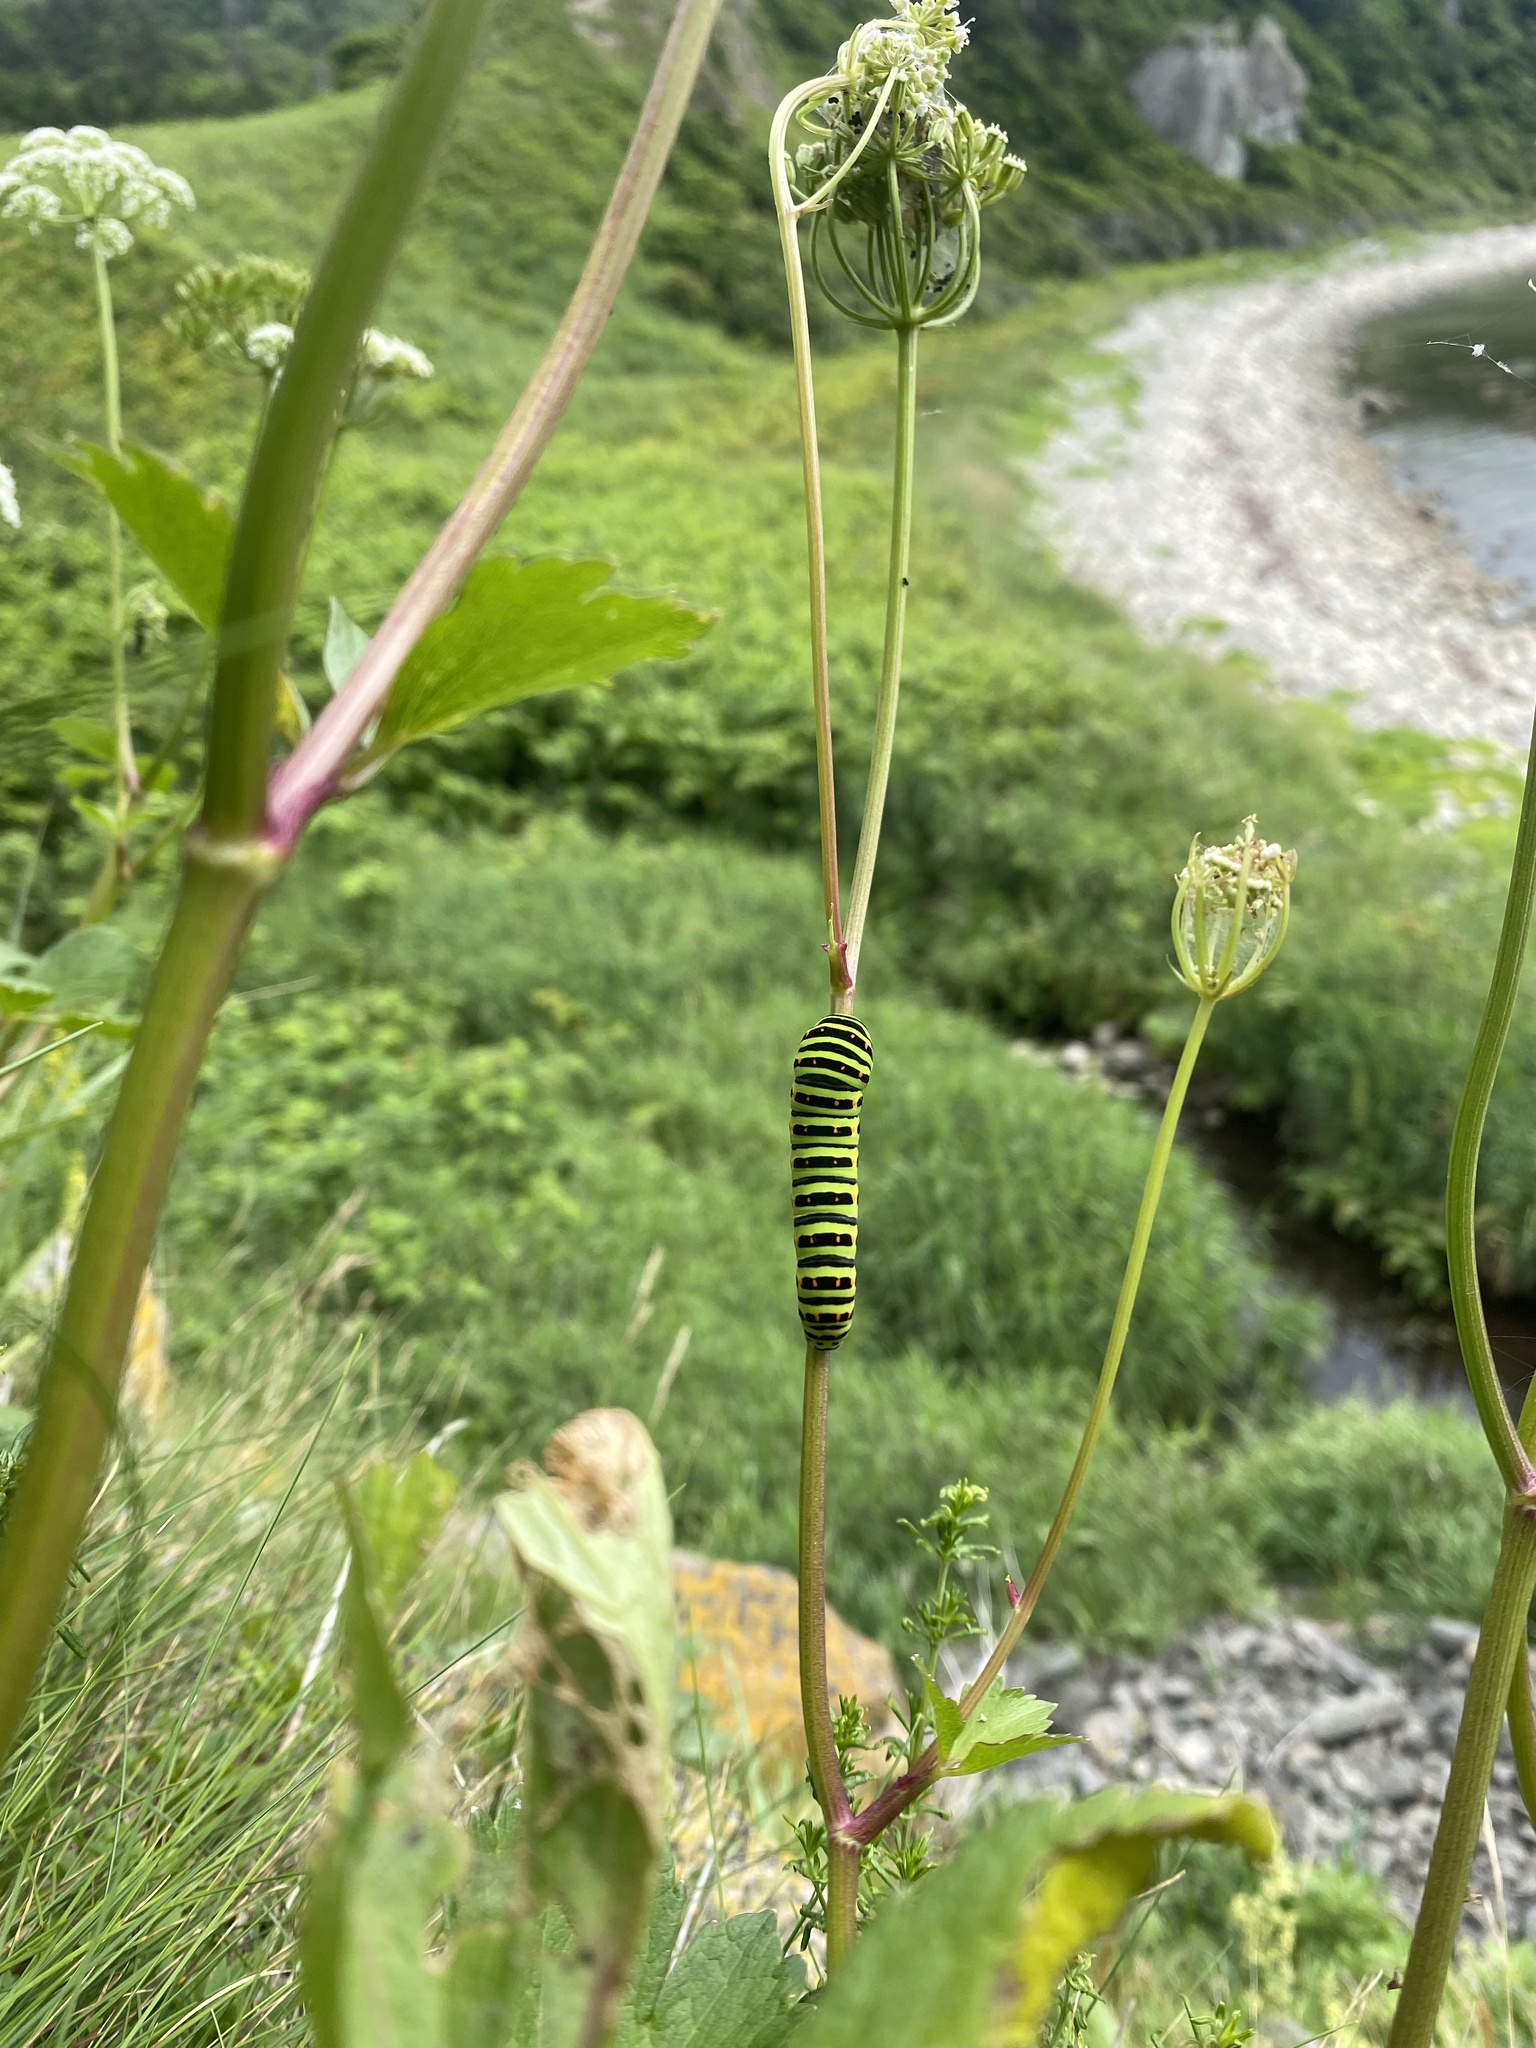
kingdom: Animalia
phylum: Arthropoda
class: Insecta
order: Lepidoptera
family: Papilionidae
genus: Papilio
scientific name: Papilio machaon
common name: Swallowtail
